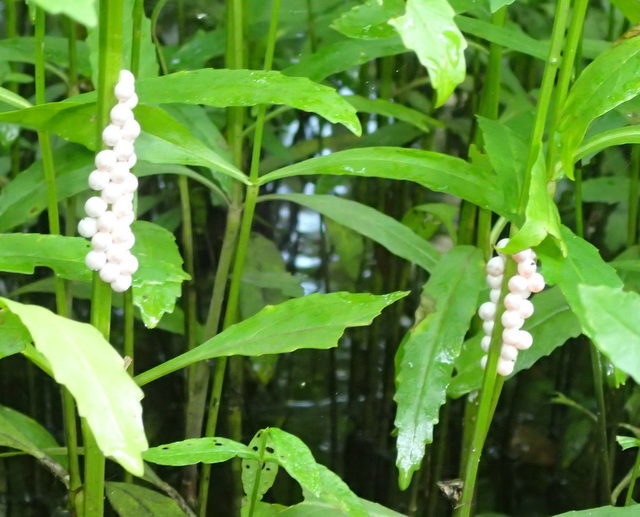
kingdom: Animalia
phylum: Mollusca
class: Gastropoda
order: Architaenioglossa
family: Ampullariidae
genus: Pomacea
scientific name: Pomacea paludosa
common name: Florida applesnail
